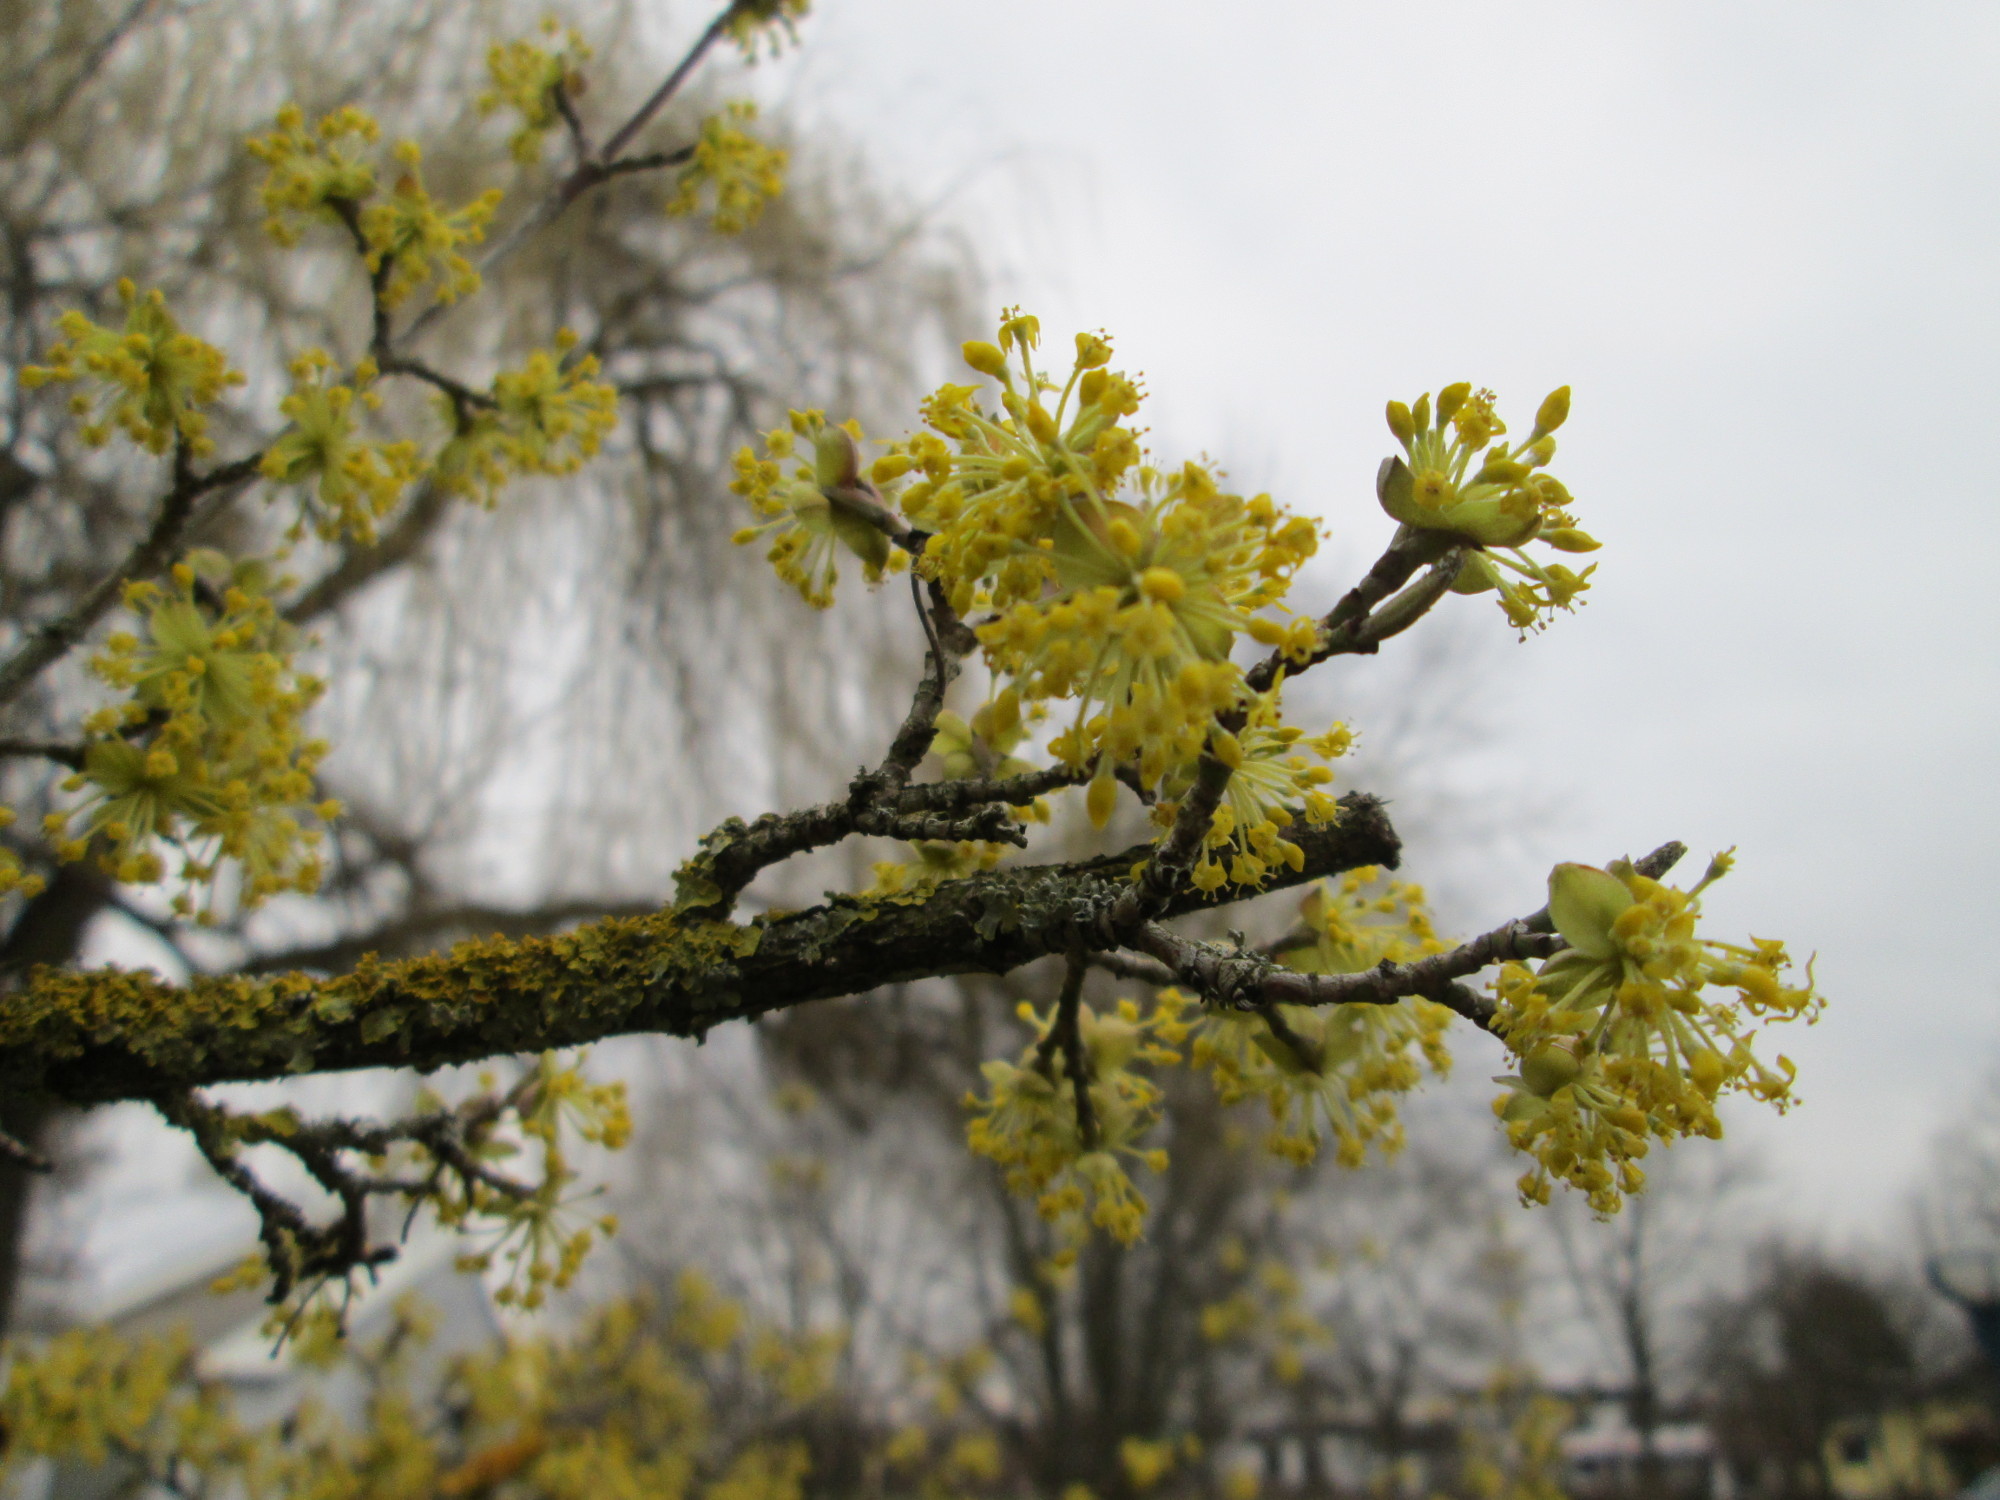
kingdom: Plantae
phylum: Tracheophyta
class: Magnoliopsida
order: Cornales
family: Cornaceae
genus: Cornus
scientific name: Cornus mas
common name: Cornelian-cherry
